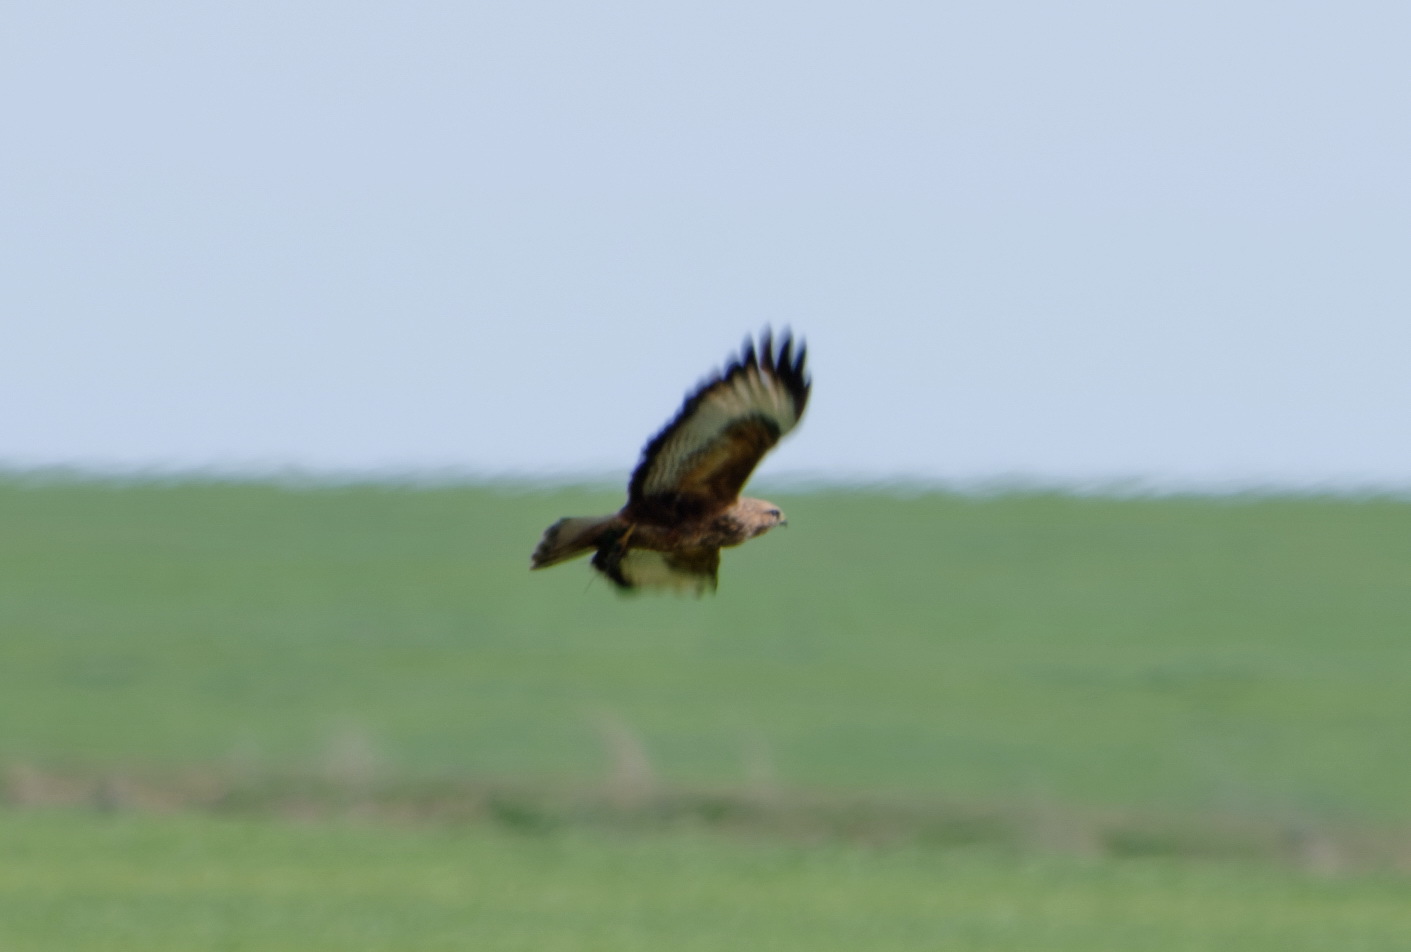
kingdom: Animalia
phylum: Chordata
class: Aves
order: Accipitriformes
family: Accipitridae
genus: Buteo
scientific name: Buteo buteo
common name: Common buzzard
